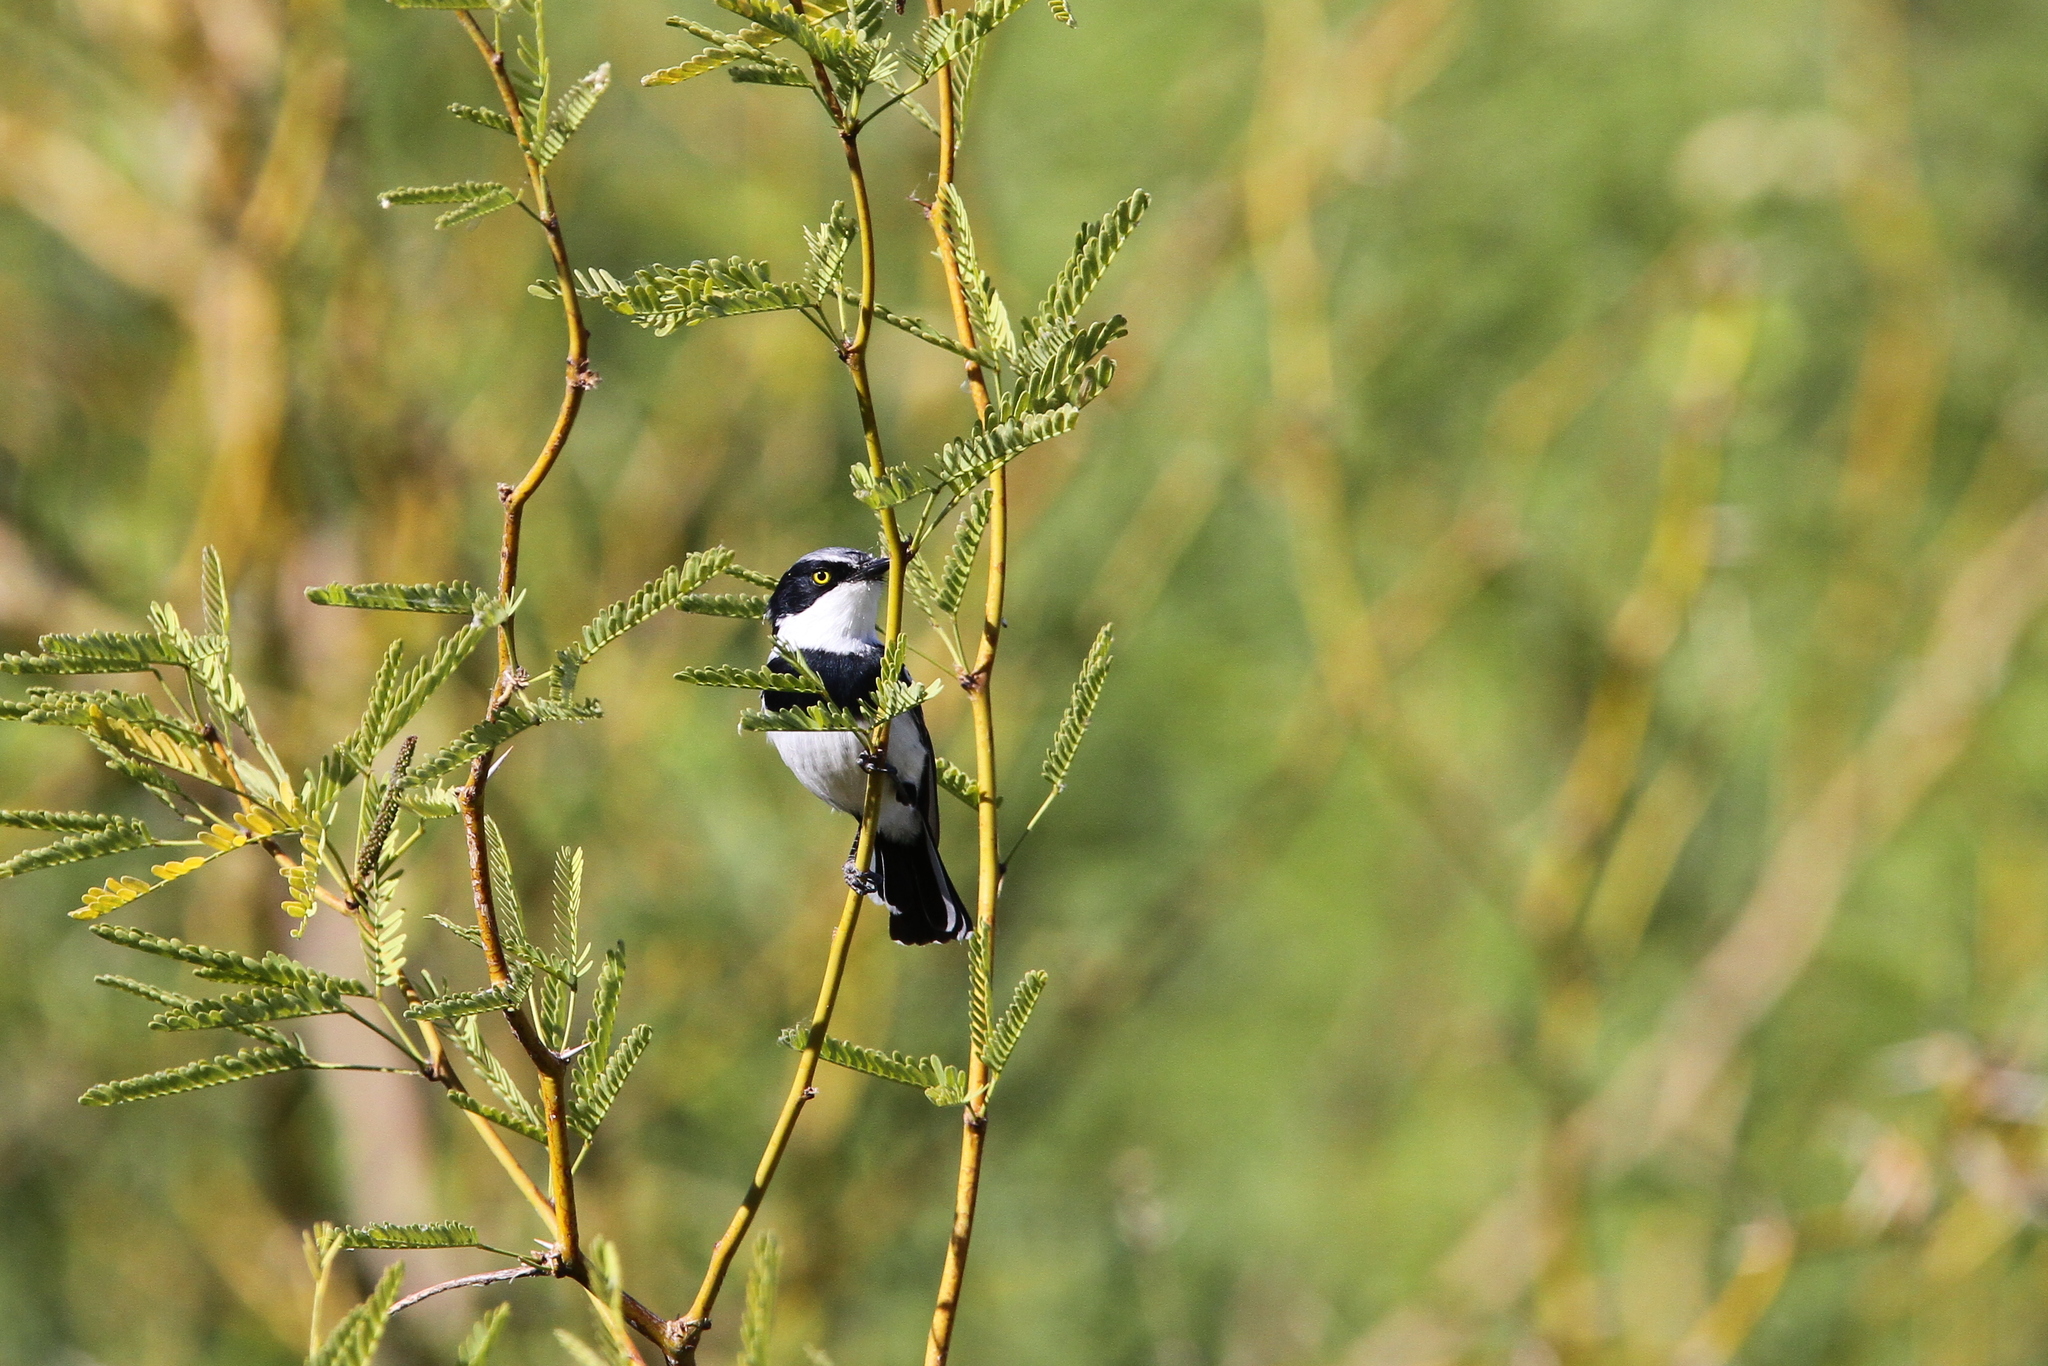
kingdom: Animalia
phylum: Chordata
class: Aves
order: Passeriformes
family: Platysteiridae
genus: Batis
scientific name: Batis pririt
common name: Pririt batis
